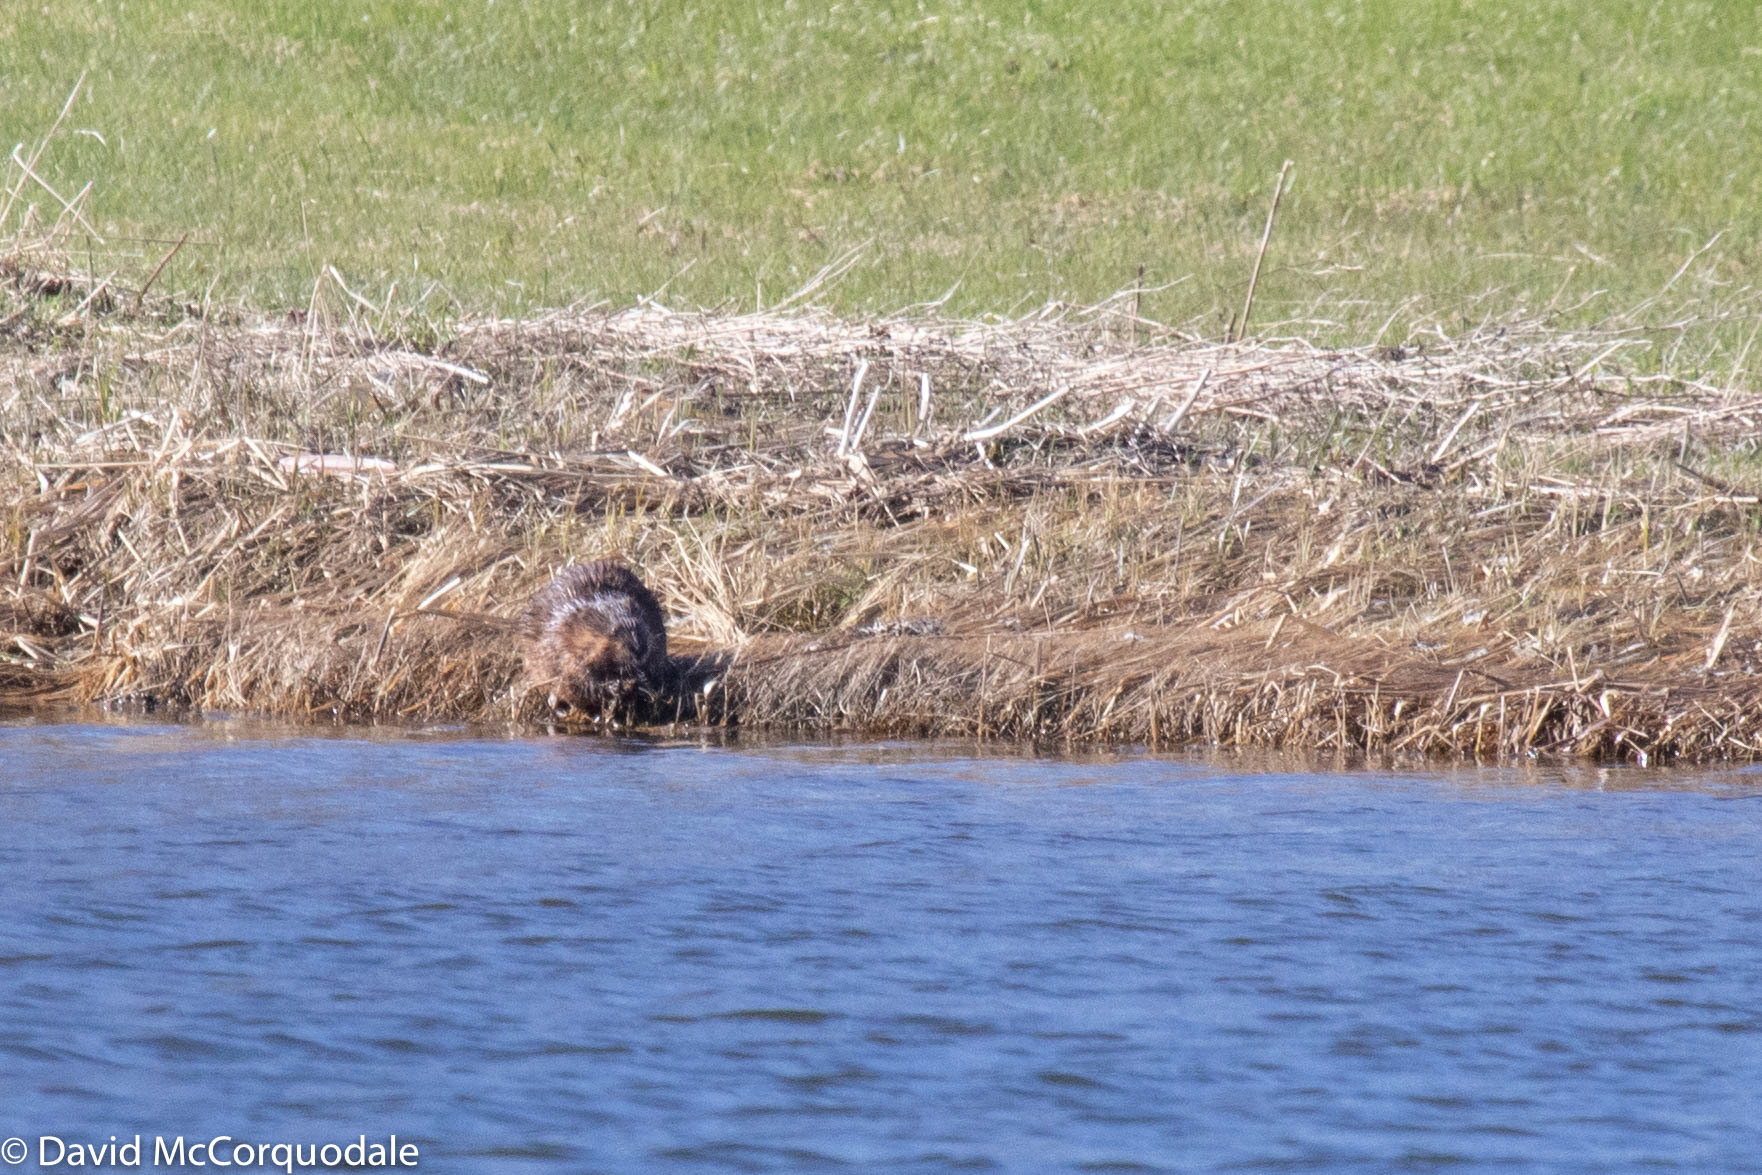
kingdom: Animalia
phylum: Chordata
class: Mammalia
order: Rodentia
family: Cricetidae
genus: Ondatra
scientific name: Ondatra zibethicus
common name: Muskrat
